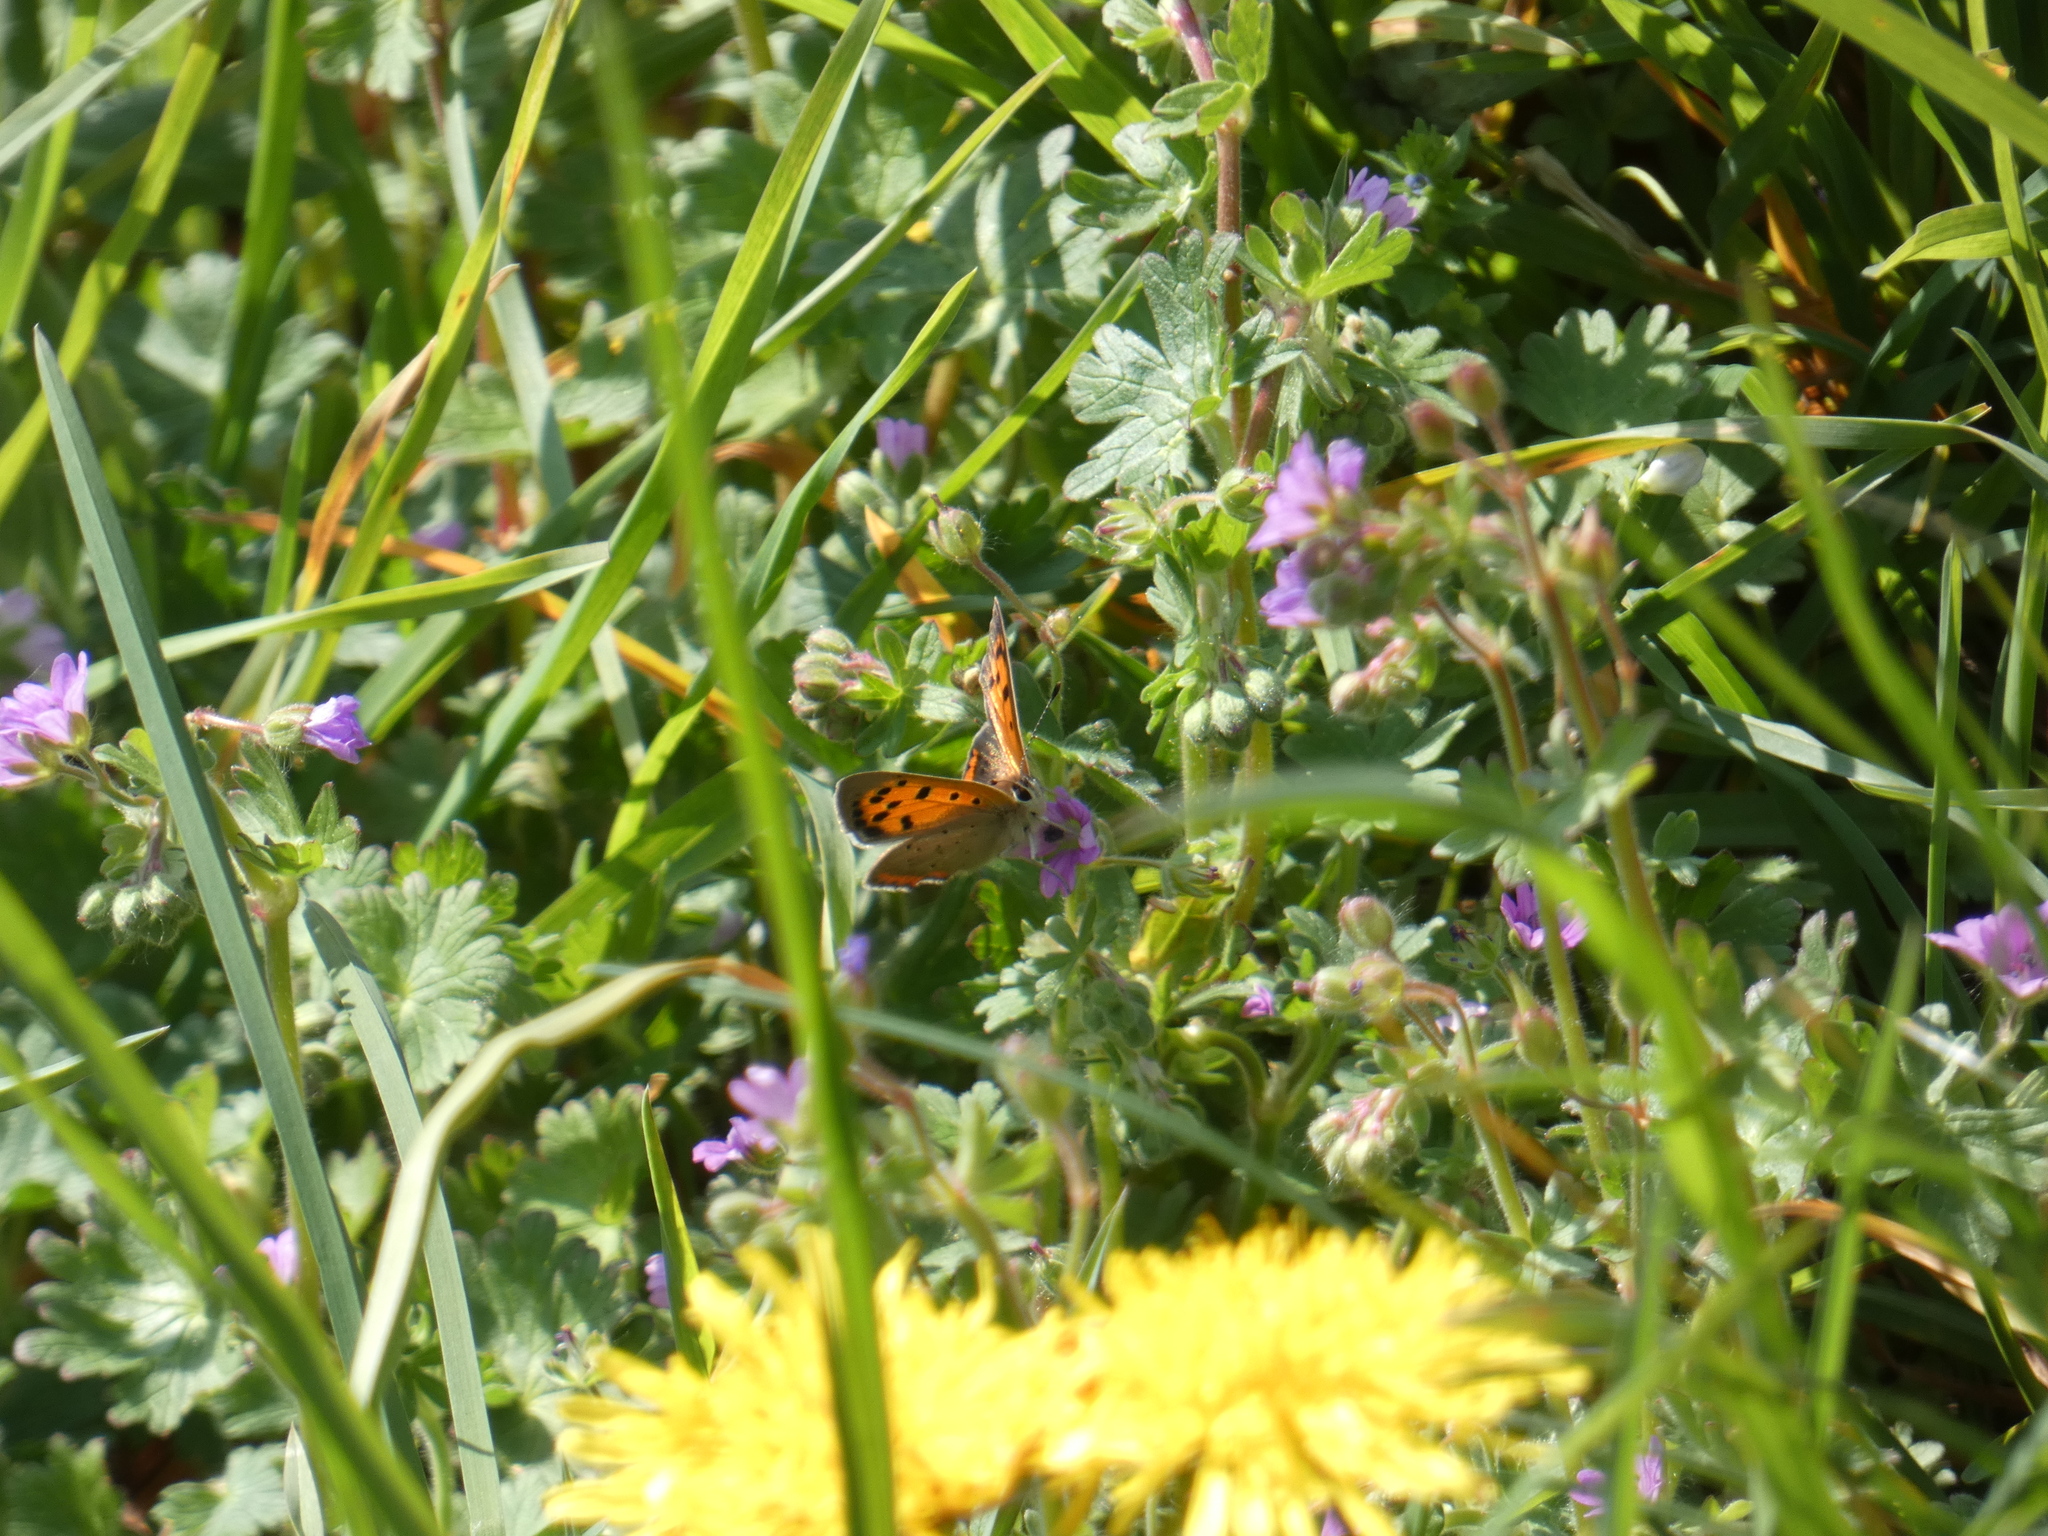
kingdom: Animalia
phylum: Arthropoda
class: Insecta
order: Lepidoptera
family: Lycaenidae
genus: Lycaena
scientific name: Lycaena phlaeas
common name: Small copper
